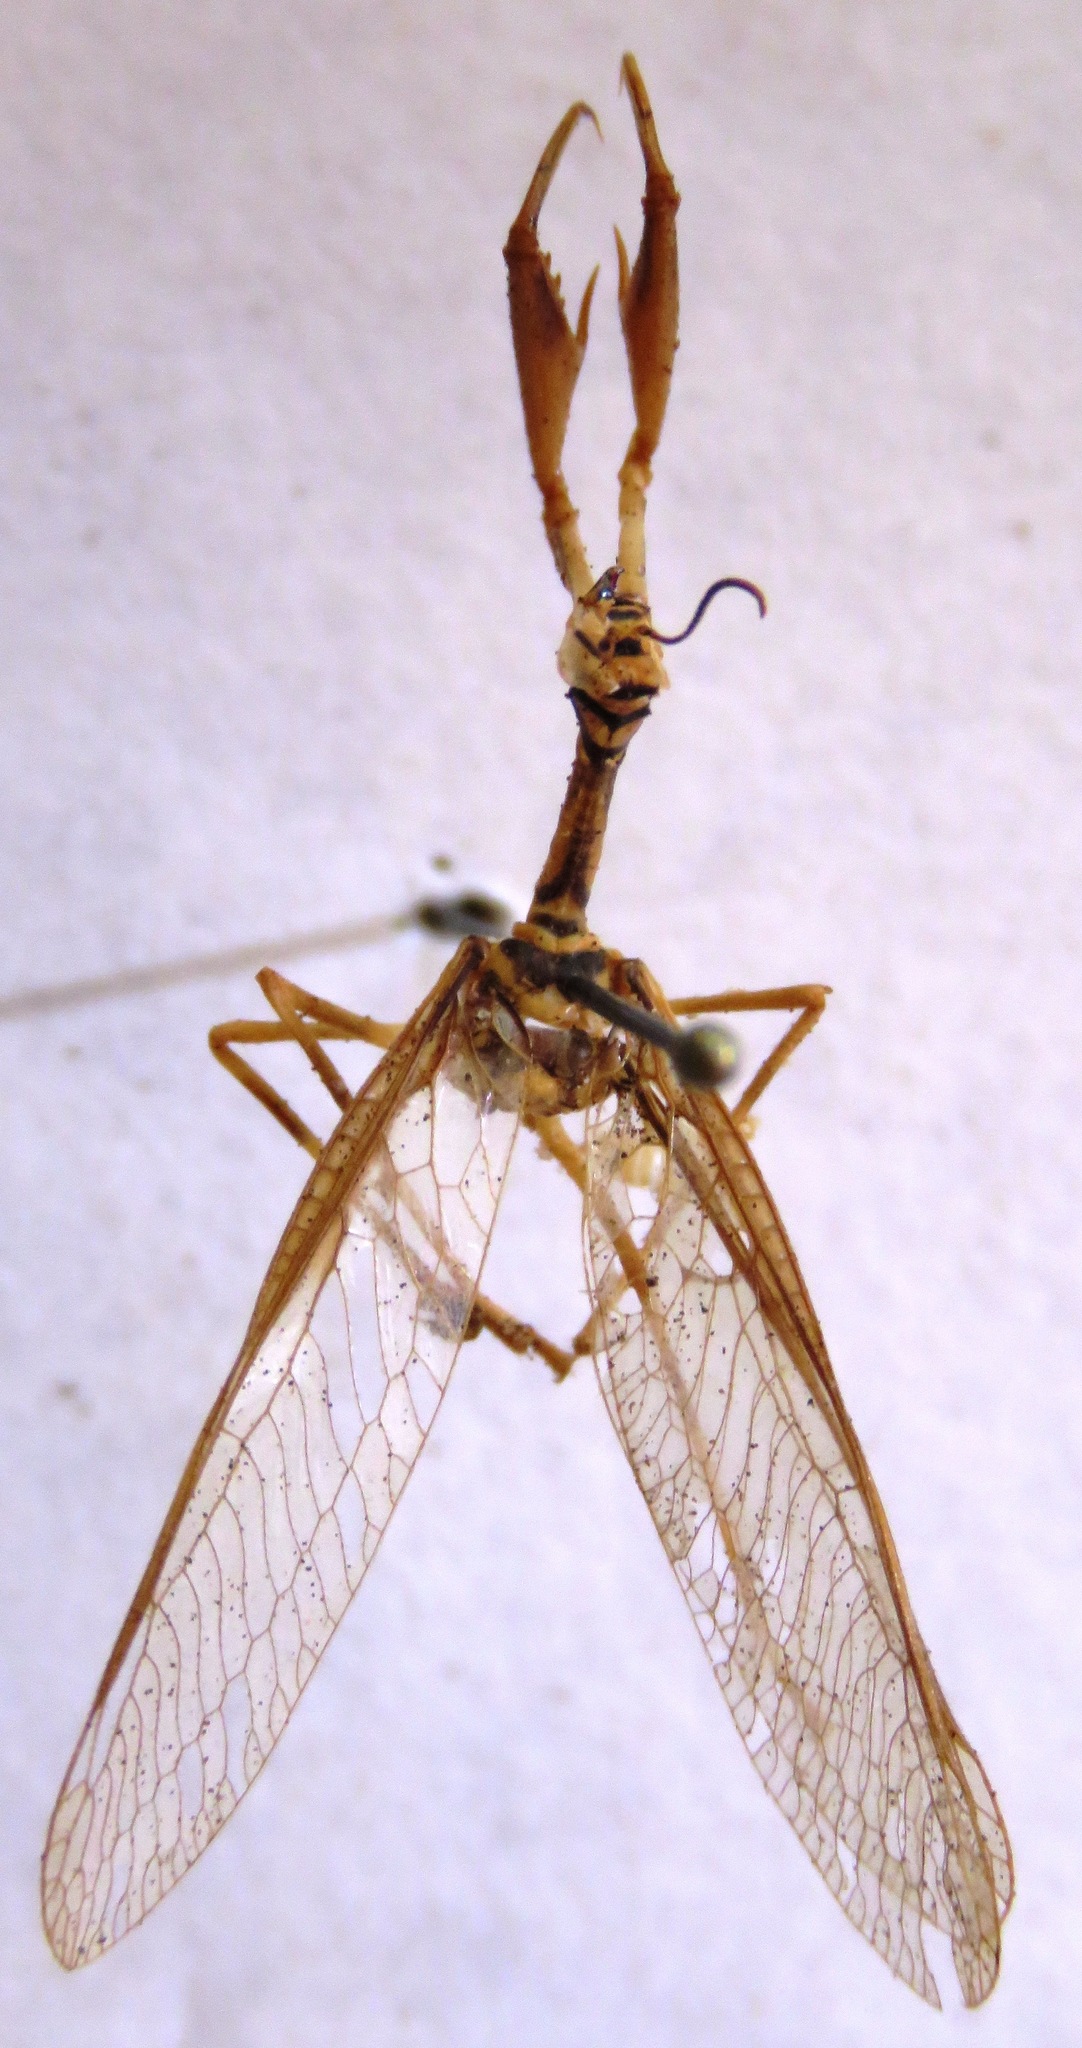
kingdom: Animalia
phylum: Arthropoda
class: Insecta
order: Neuroptera
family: Mantispidae
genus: Entanoneura
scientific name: Entanoneura batesella
